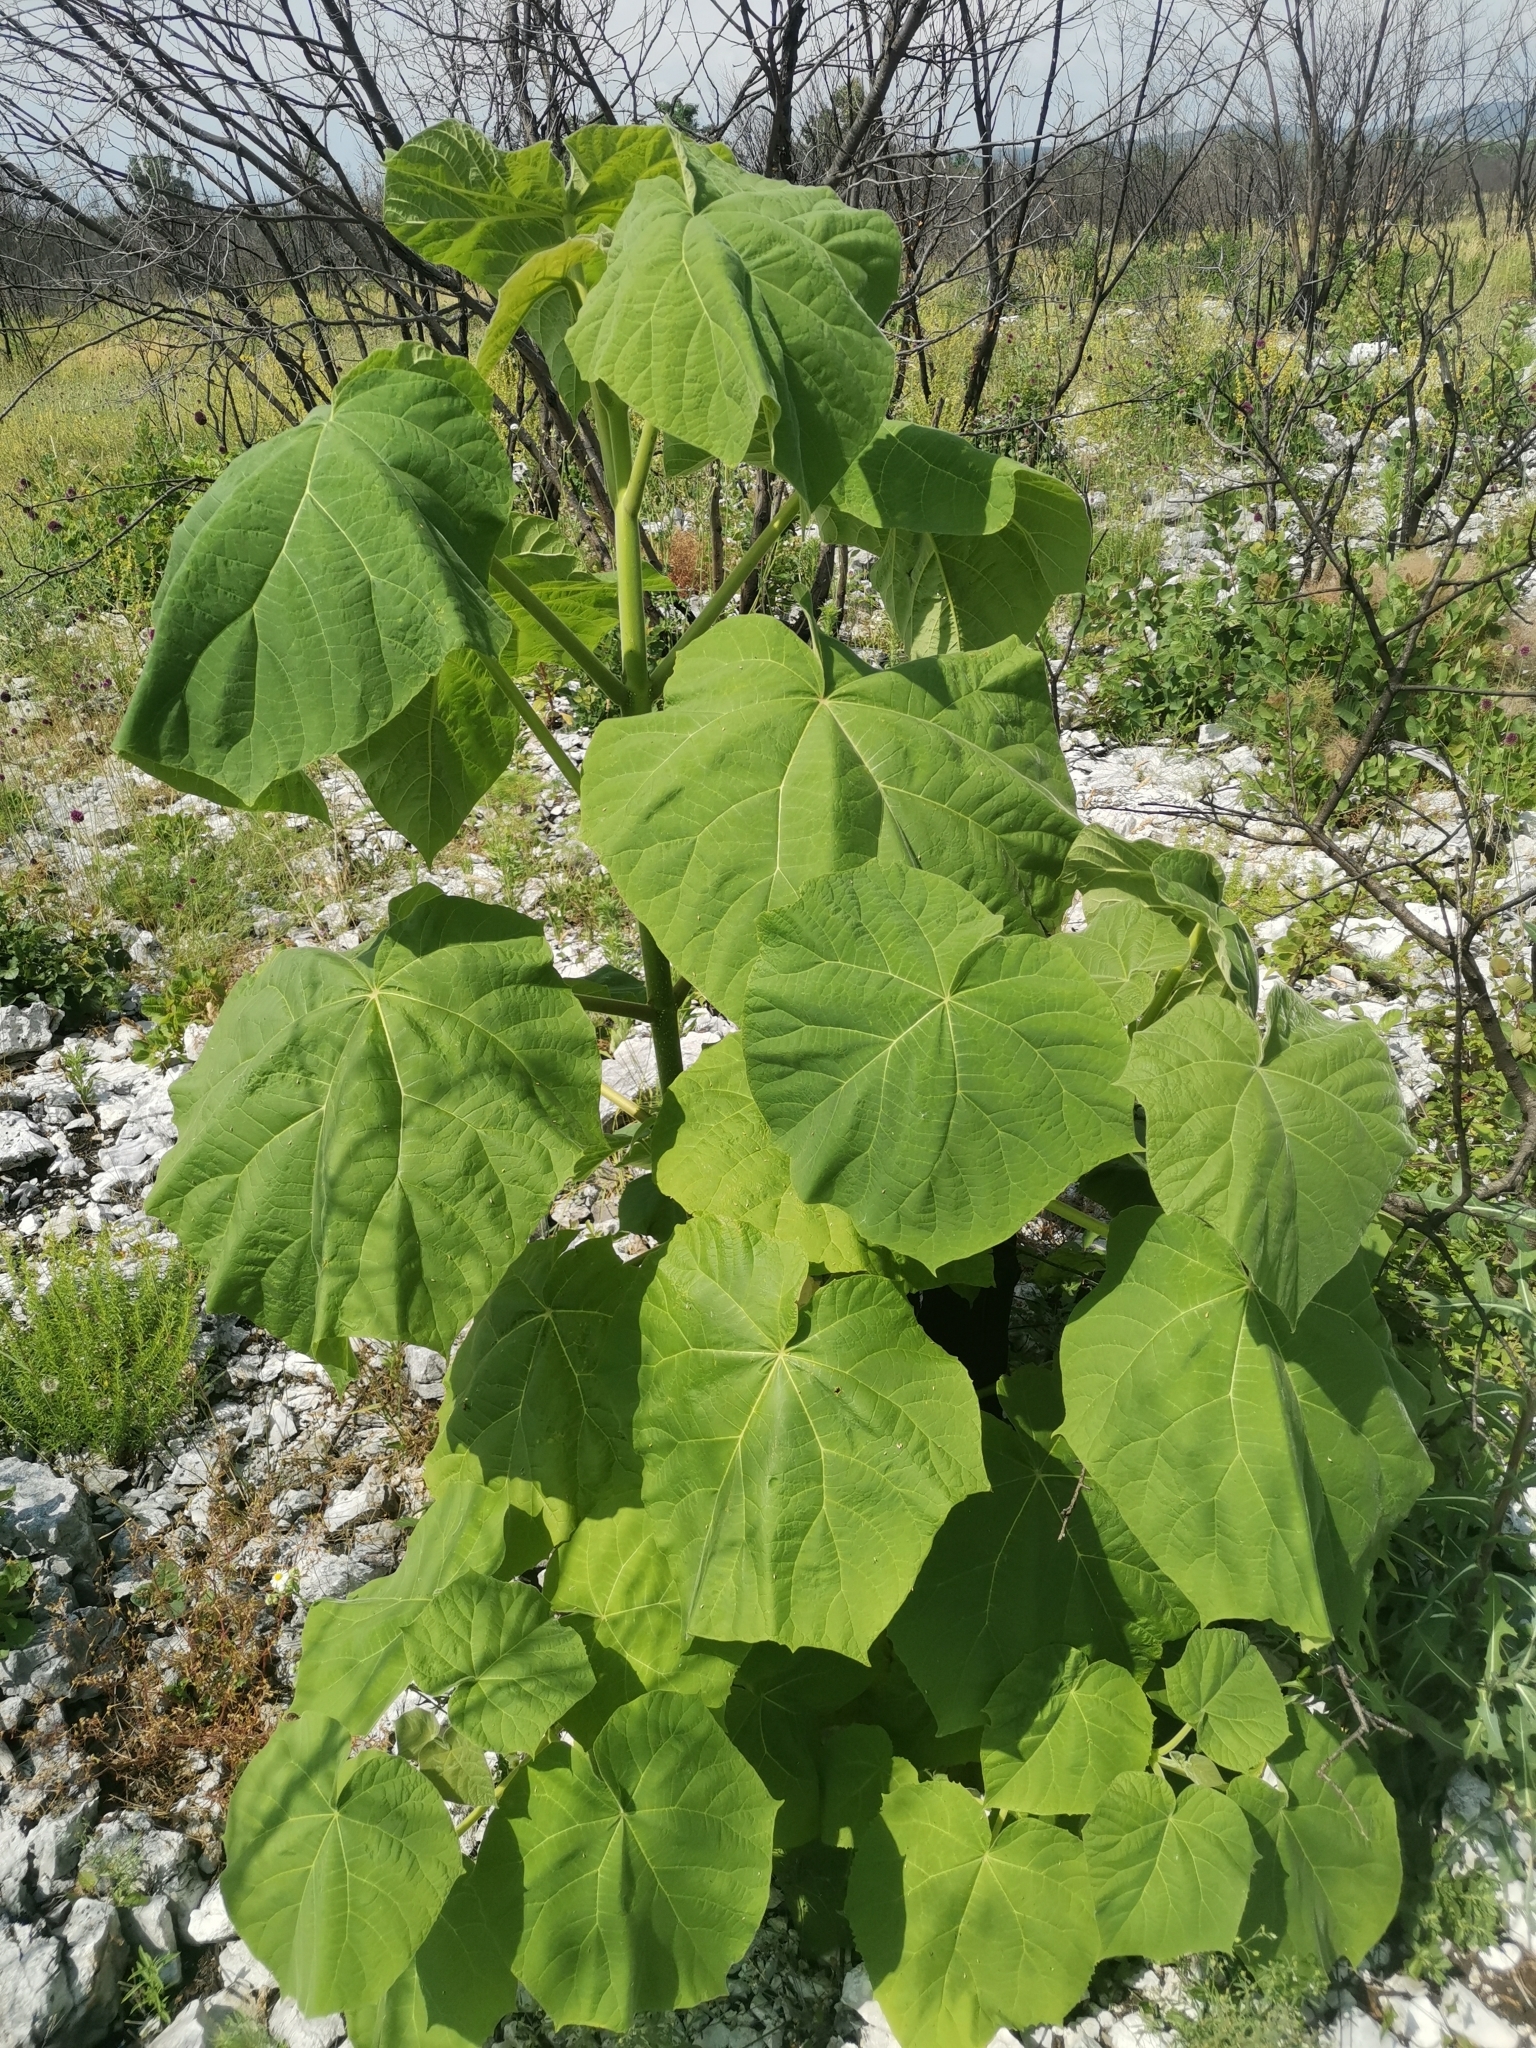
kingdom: Plantae
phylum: Tracheophyta
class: Magnoliopsida
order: Lamiales
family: Paulowniaceae
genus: Paulownia
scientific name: Paulownia tomentosa
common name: Foxglove-tree
